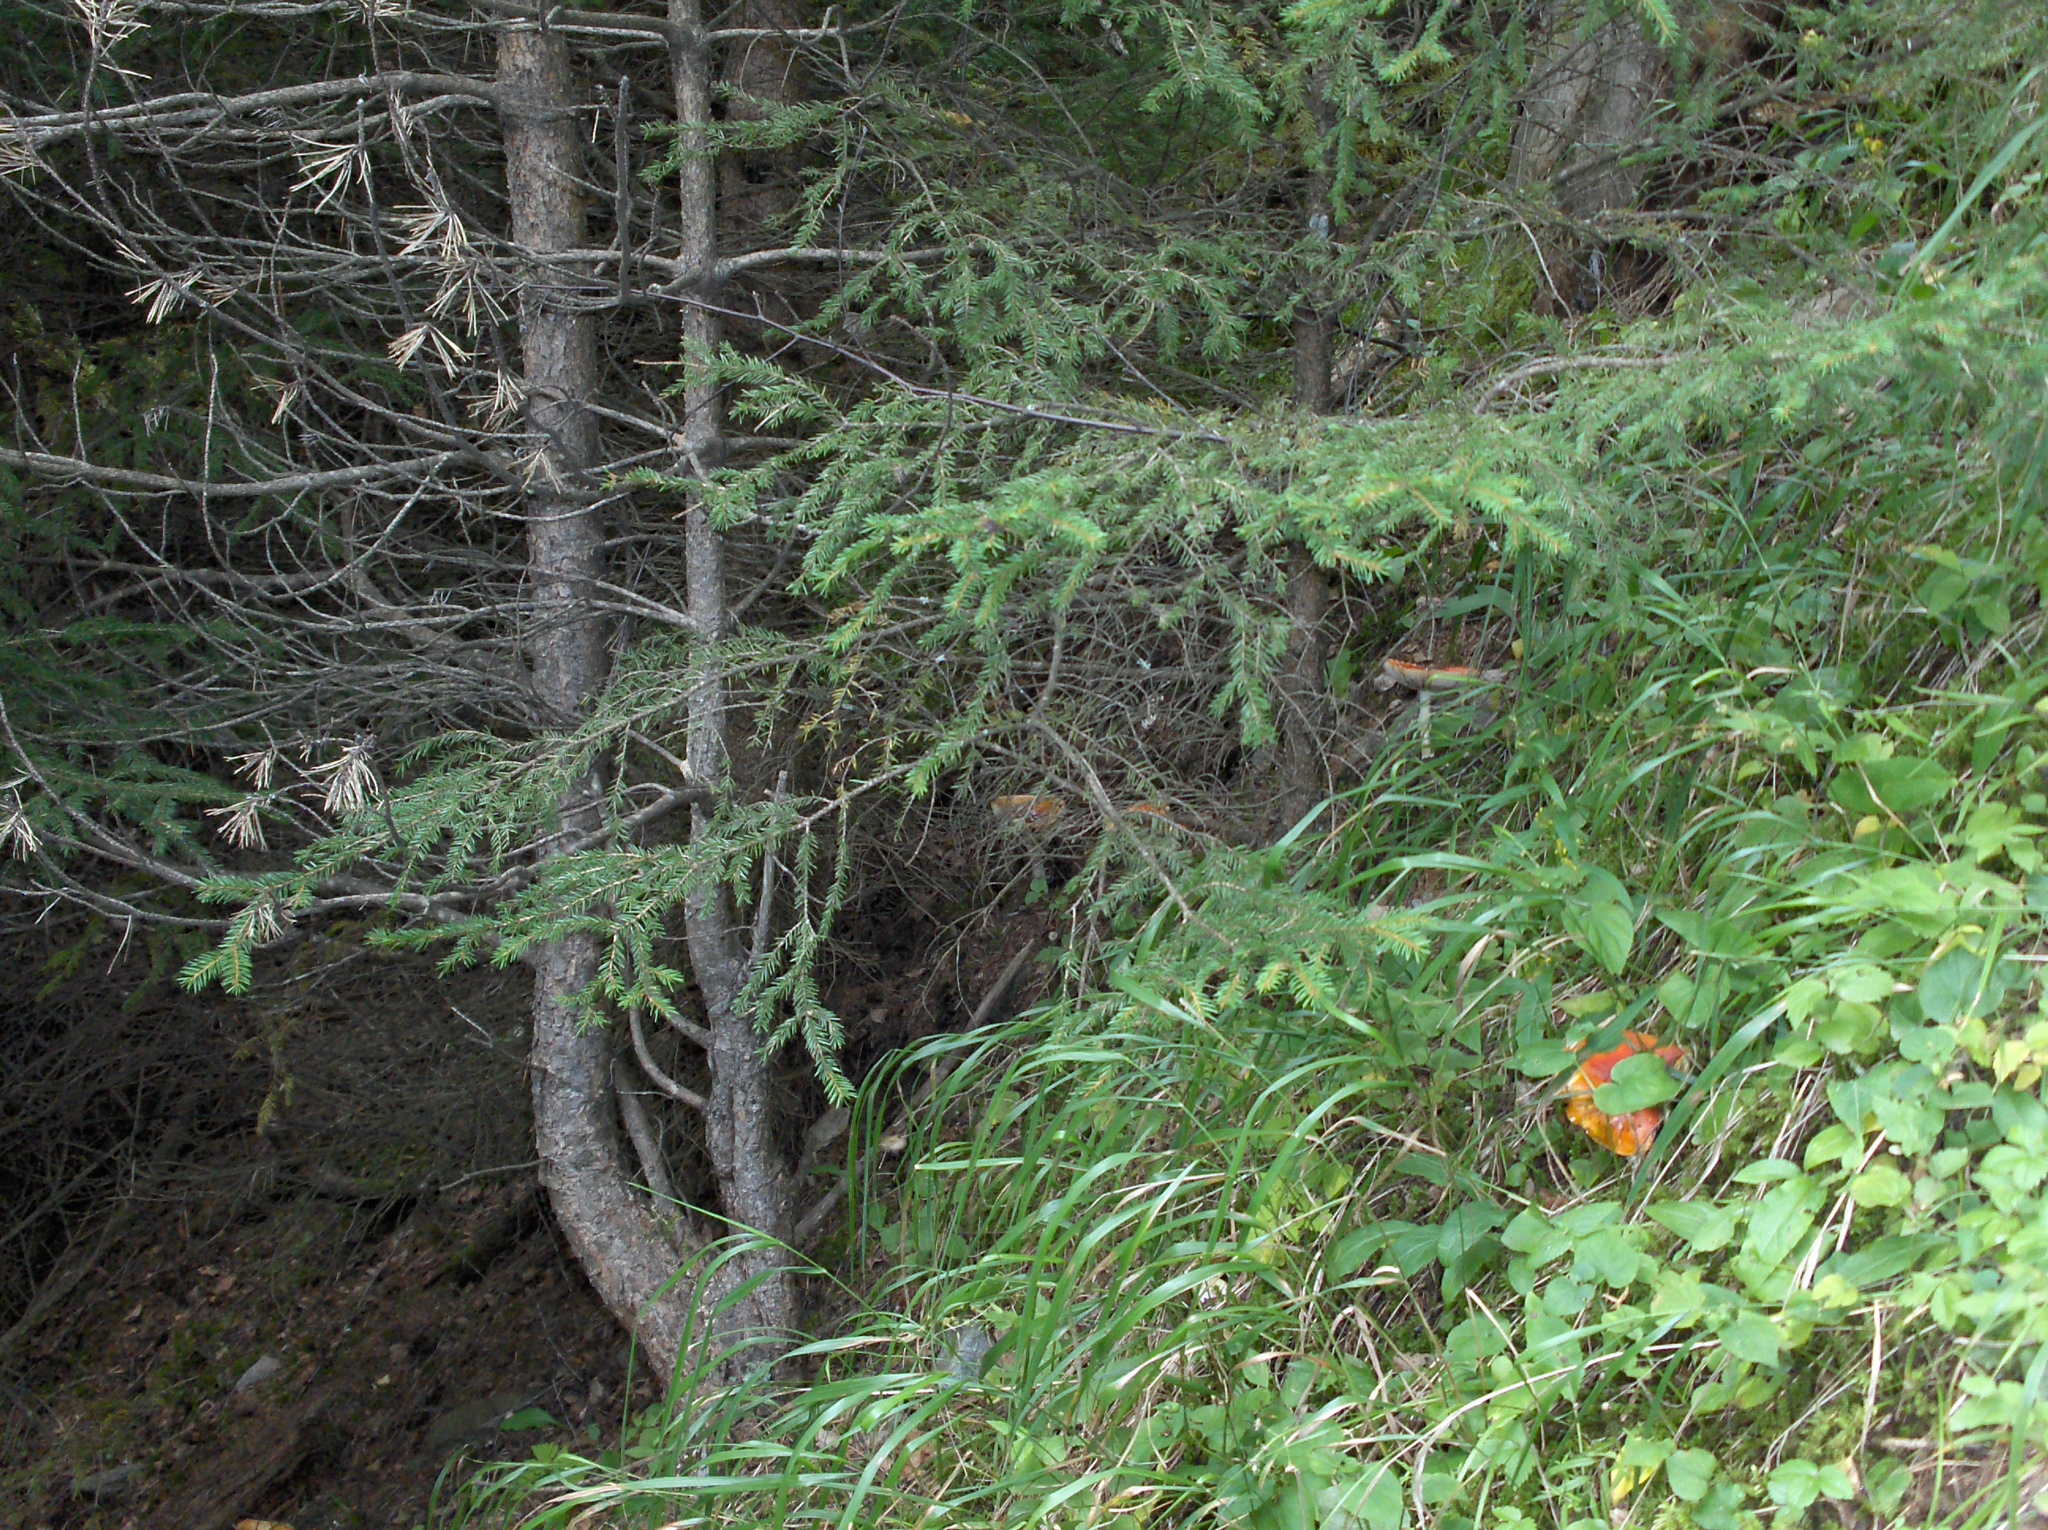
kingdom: Fungi
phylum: Basidiomycota
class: Agaricomycetes
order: Agaricales
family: Amanitaceae
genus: Amanita
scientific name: Amanita muscaria
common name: Fly agaric
